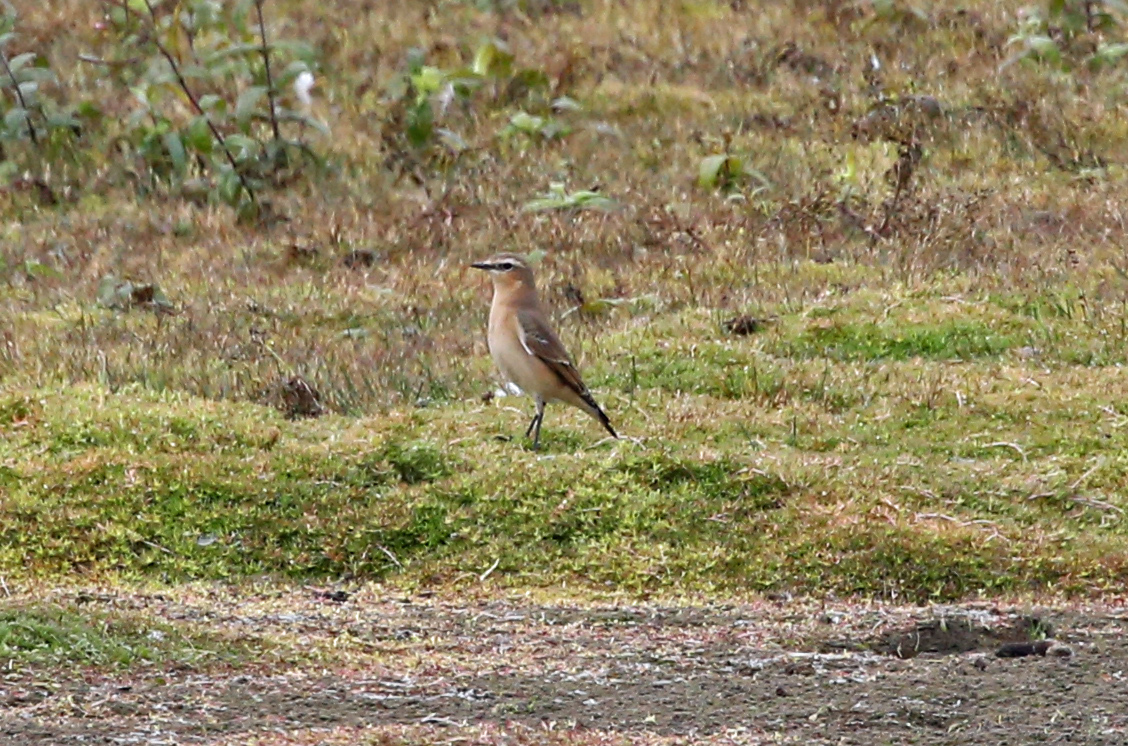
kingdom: Animalia
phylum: Chordata
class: Aves
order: Passeriformes
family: Muscicapidae
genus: Oenanthe
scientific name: Oenanthe oenanthe
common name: Northern wheatear
